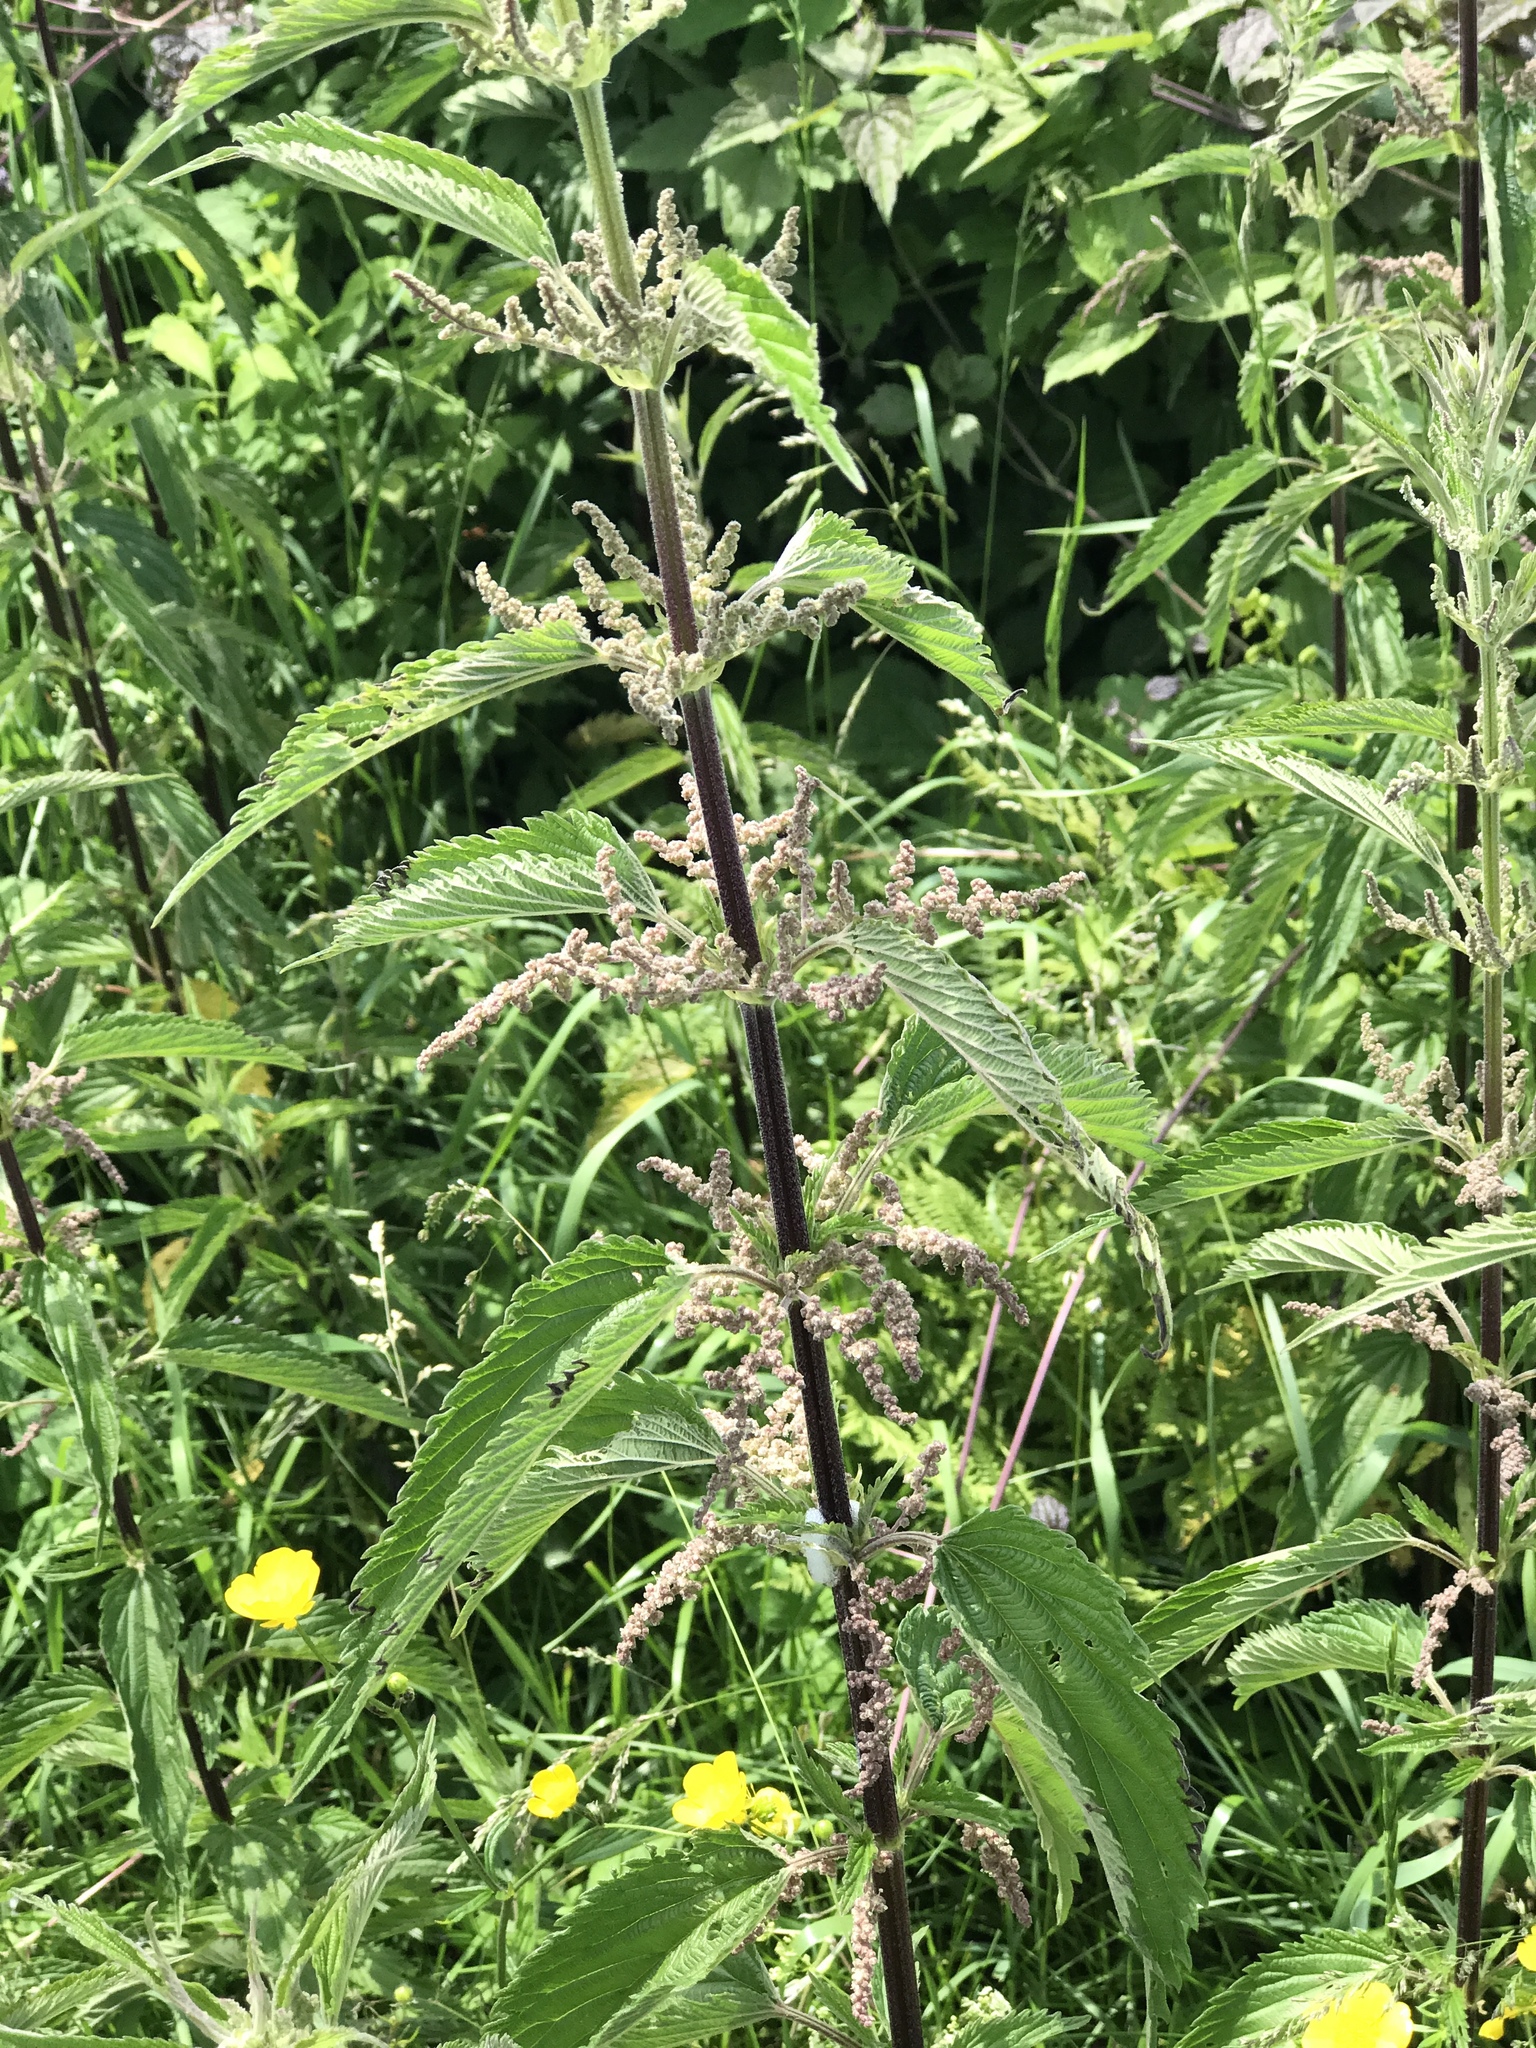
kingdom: Plantae
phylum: Tracheophyta
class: Magnoliopsida
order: Rosales
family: Urticaceae
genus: Urtica
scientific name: Urtica dioica
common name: Common nettle
